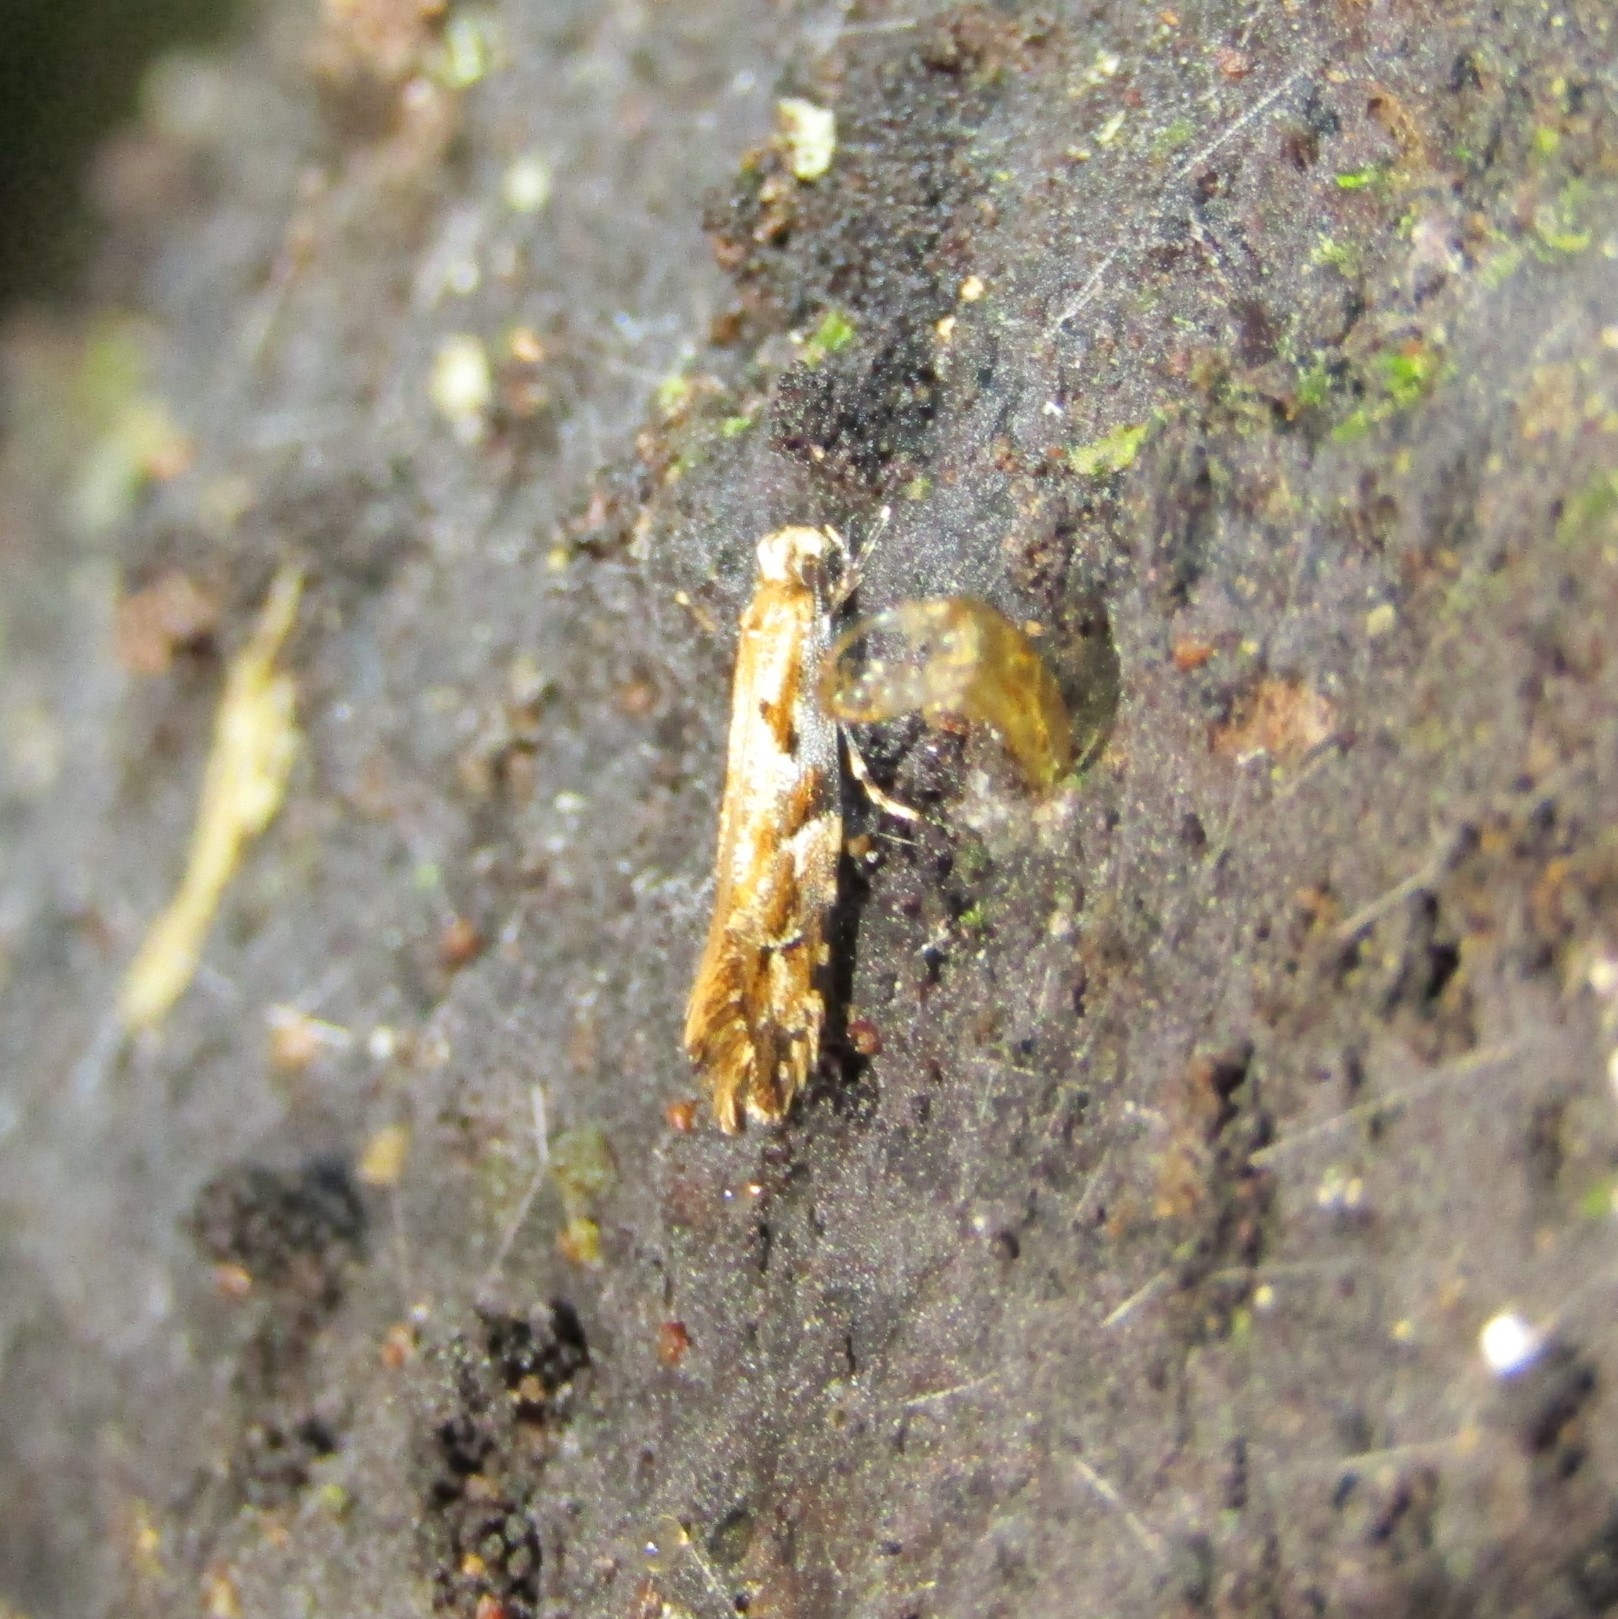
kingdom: Animalia
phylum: Arthropoda
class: Insecta
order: Lepidoptera
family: Tineidae
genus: Crypsitricha
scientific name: Crypsitricha agriopa
